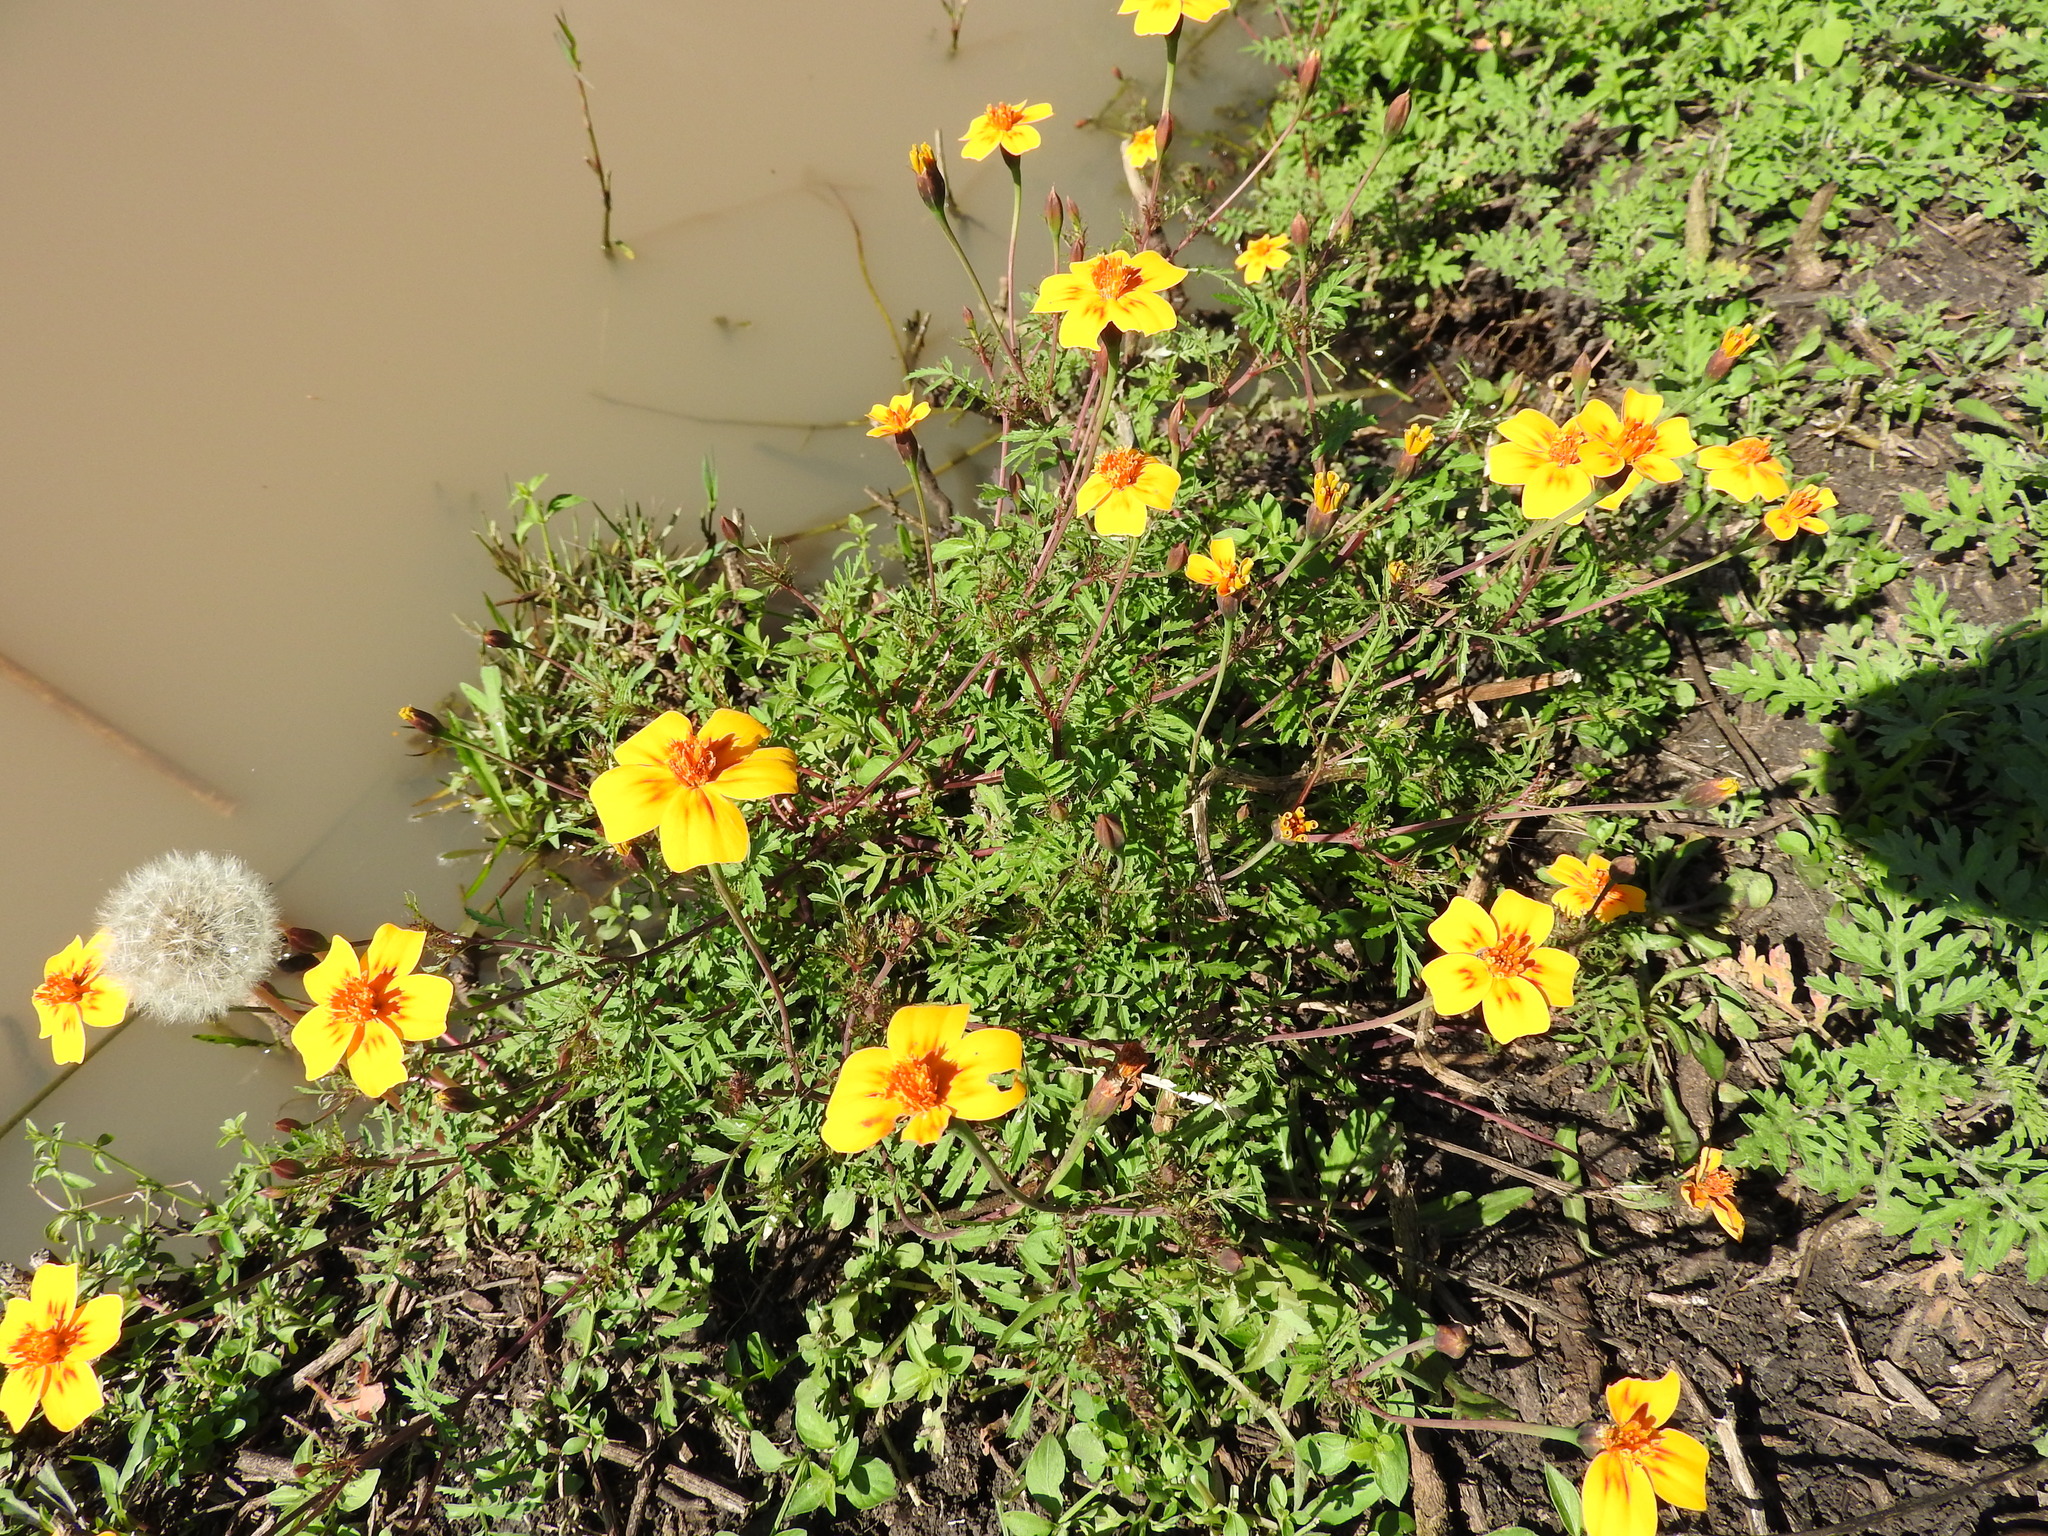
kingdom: Plantae
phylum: Tracheophyta
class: Magnoliopsida
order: Asterales
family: Asteraceae
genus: Tagetes
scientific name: Tagetes lunulata
